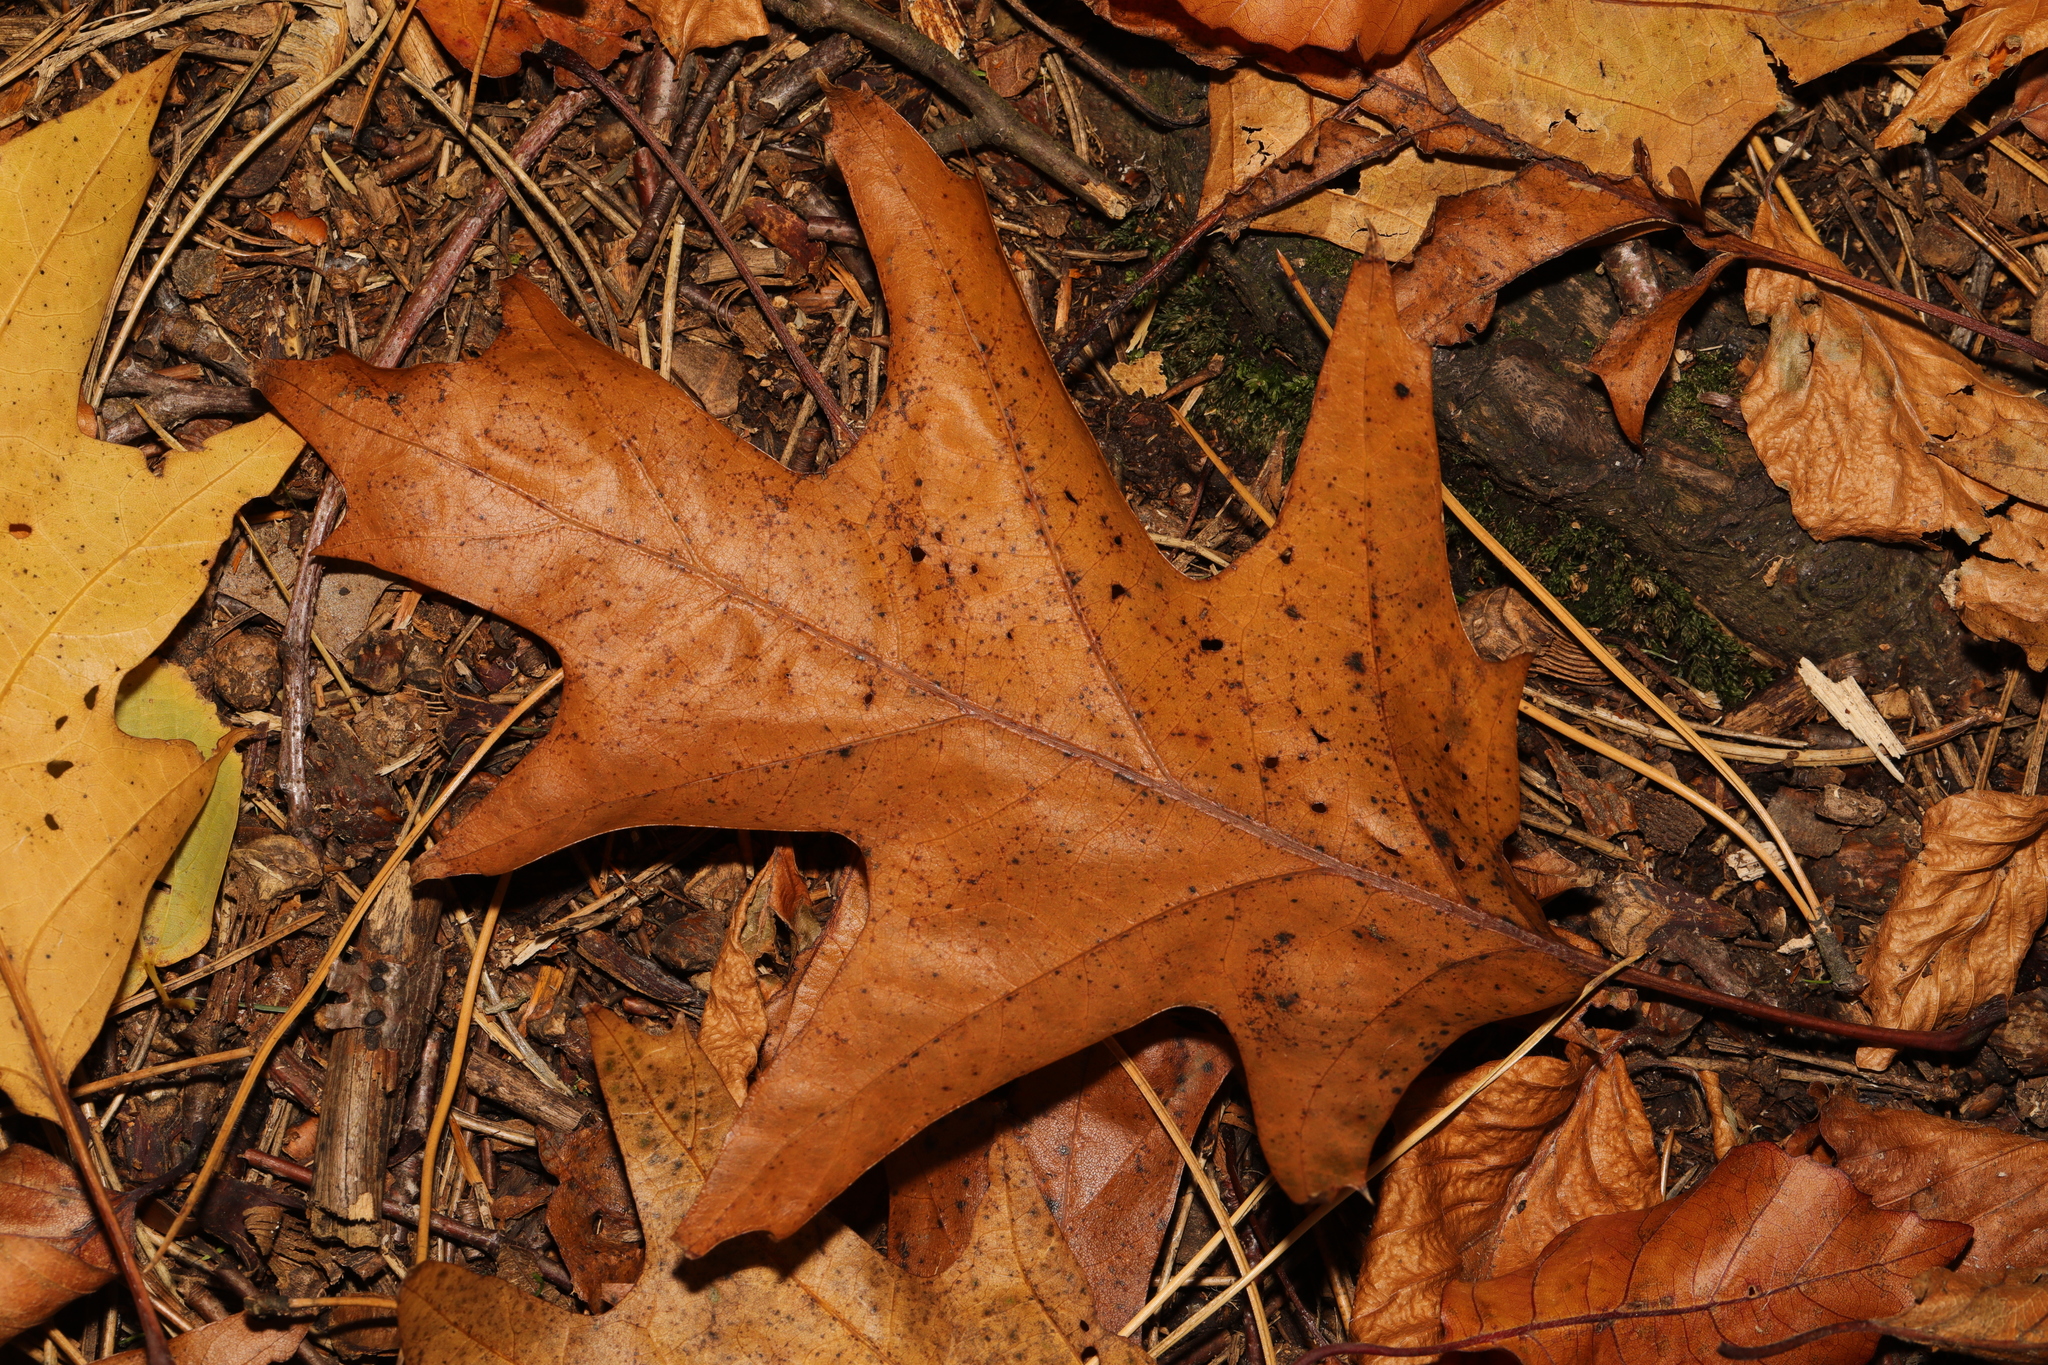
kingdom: Plantae
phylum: Tracheophyta
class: Magnoliopsida
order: Fagales
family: Fagaceae
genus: Quercus
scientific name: Quercus rubra
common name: Red oak
